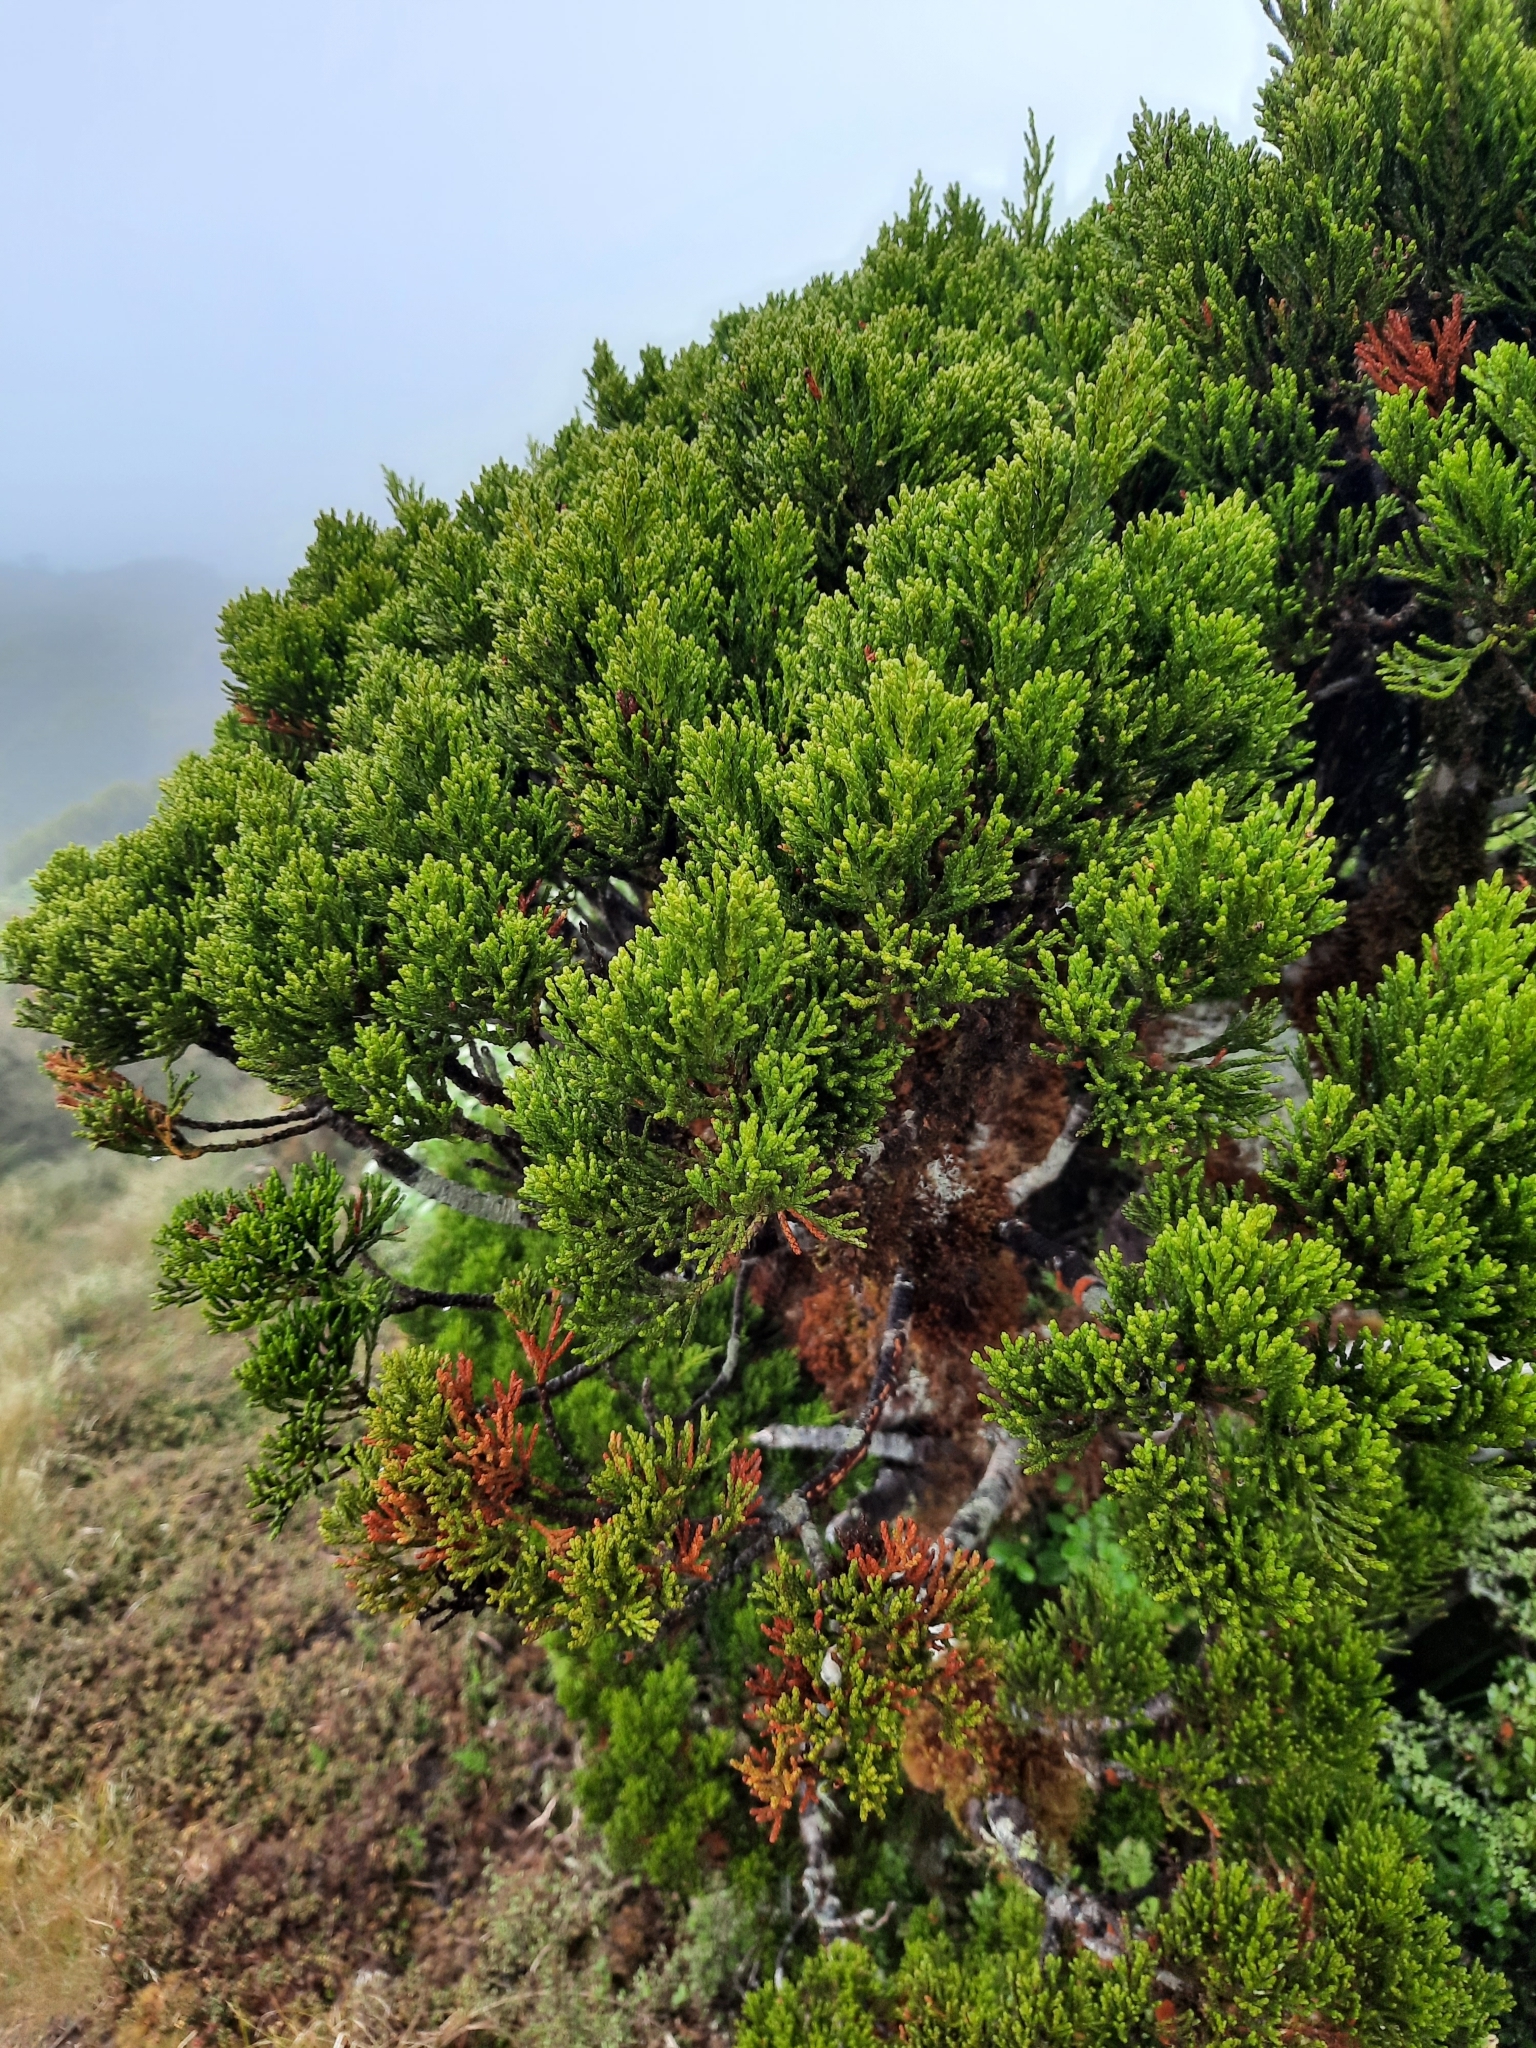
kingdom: Plantae
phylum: Tracheophyta
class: Pinopsida
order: Pinales
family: Podocarpaceae
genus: Halocarpus
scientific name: Halocarpus biformis
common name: Alpine tarwood
